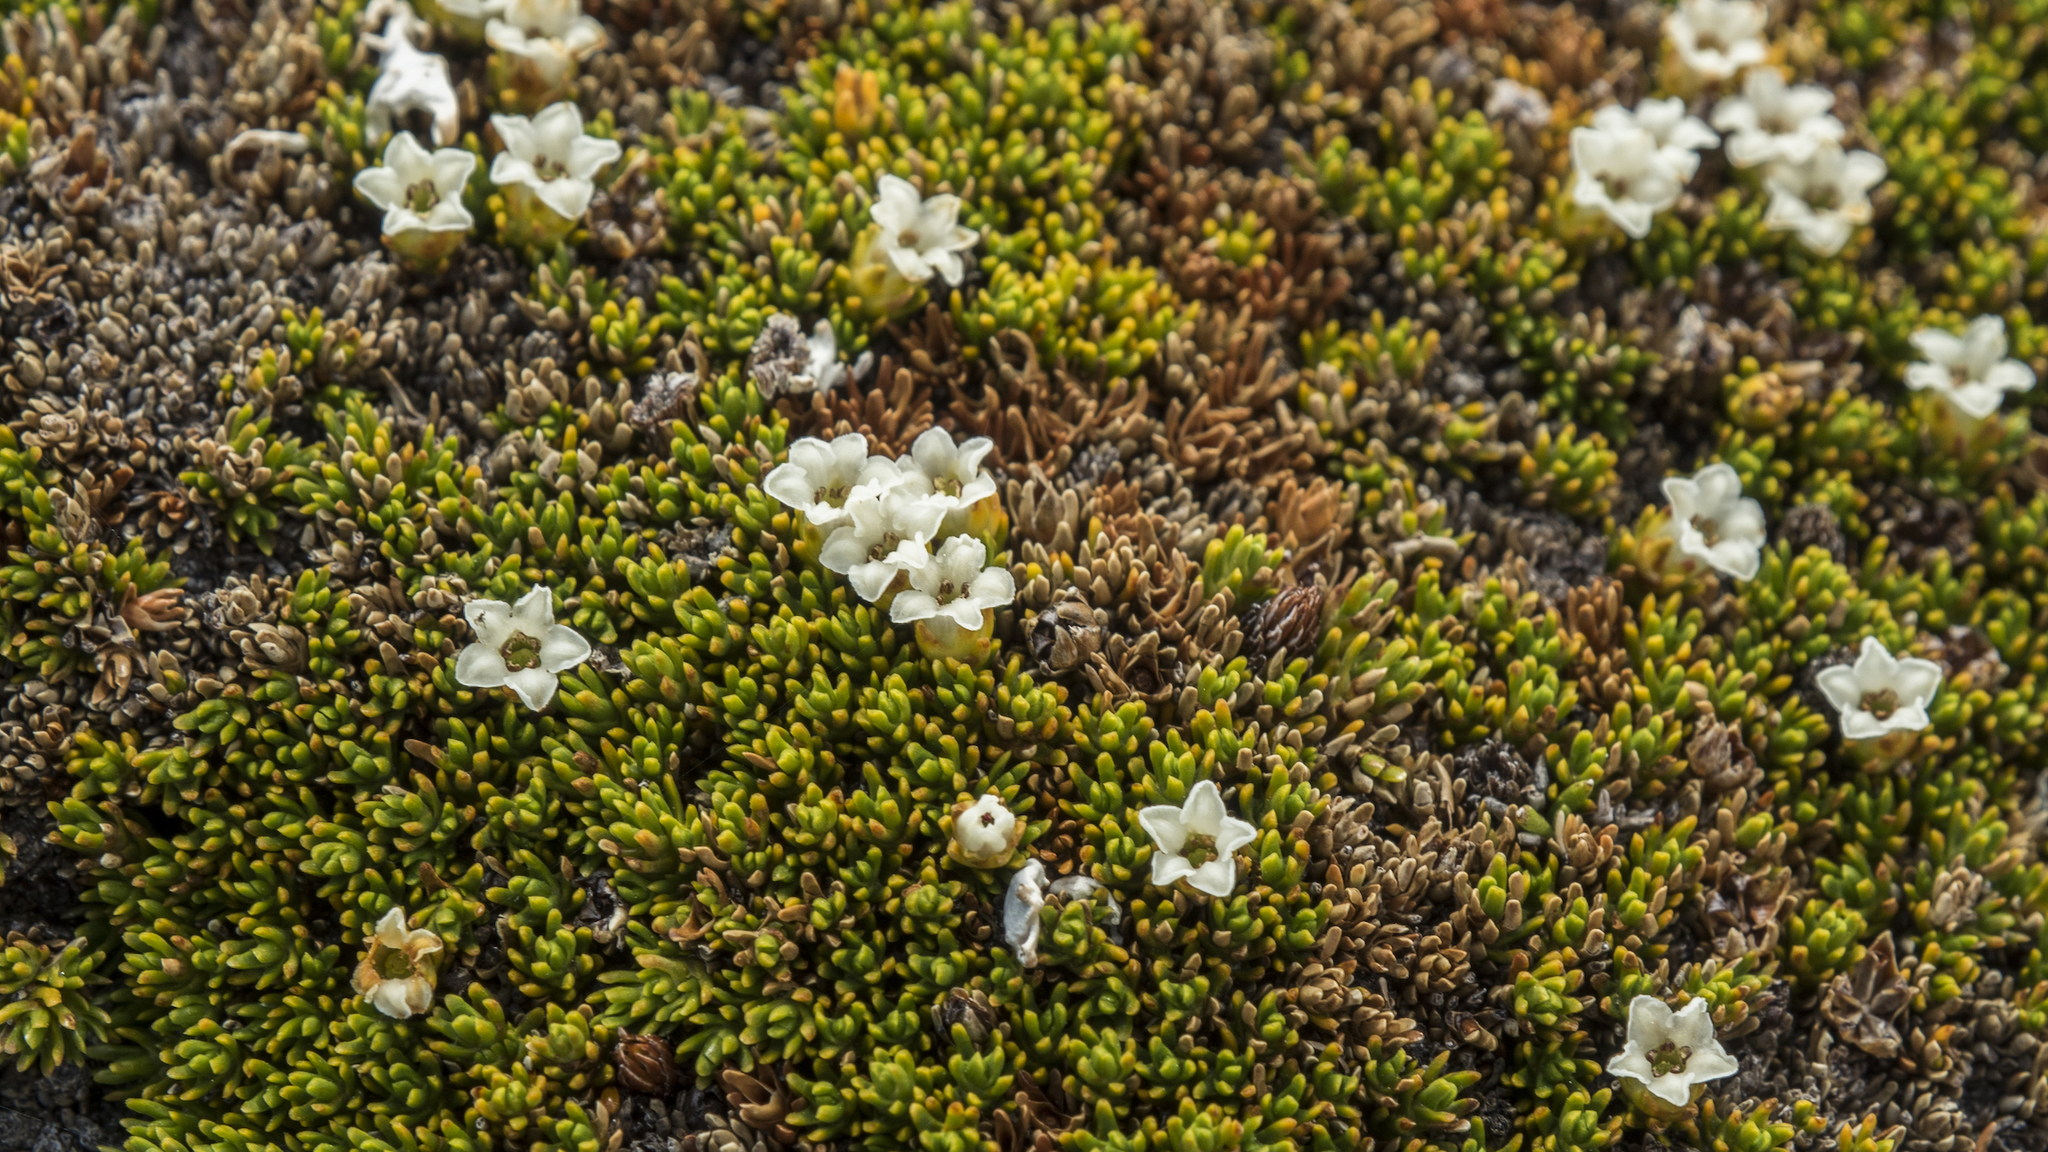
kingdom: Plantae
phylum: Tracheophyta
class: Magnoliopsida
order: Ericales
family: Ericaceae
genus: Dracophyllum
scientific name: Dracophyllum muscoides
